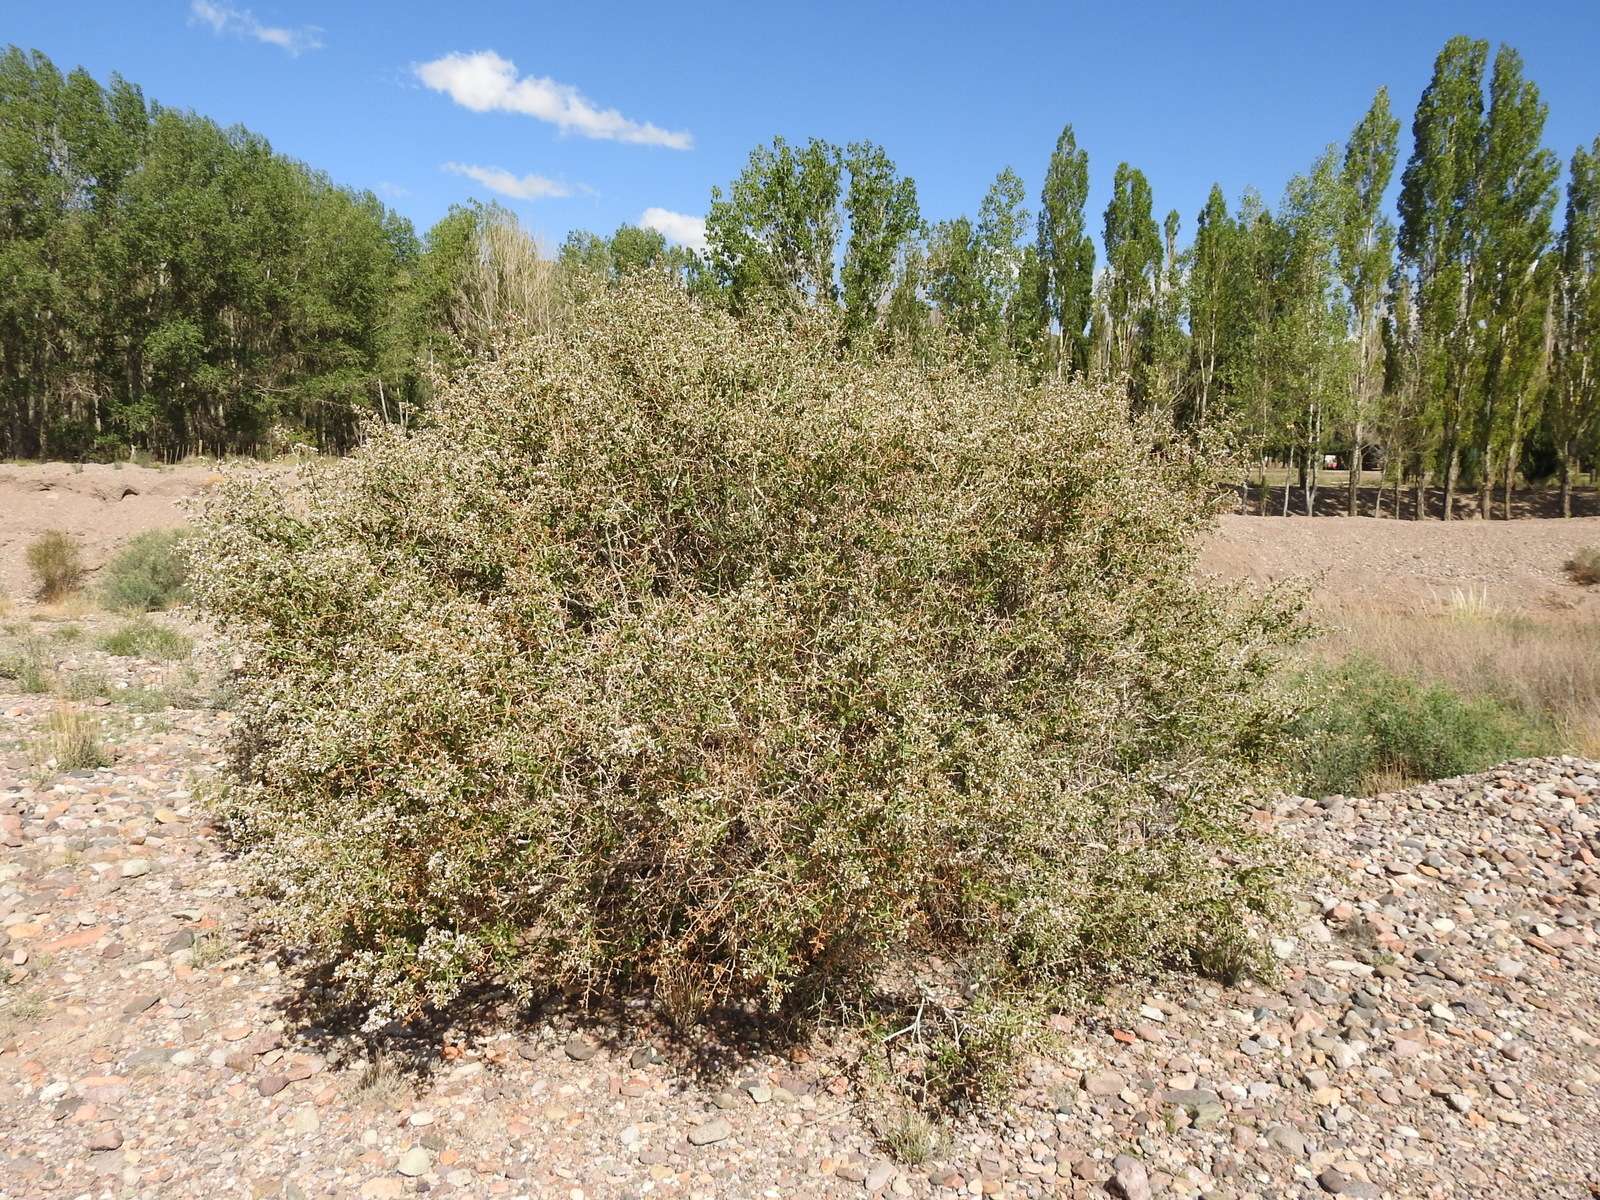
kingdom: Plantae
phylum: Tracheophyta
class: Magnoliopsida
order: Asterales
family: Asteraceae
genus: Proustia
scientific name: Proustia cuneifolia
